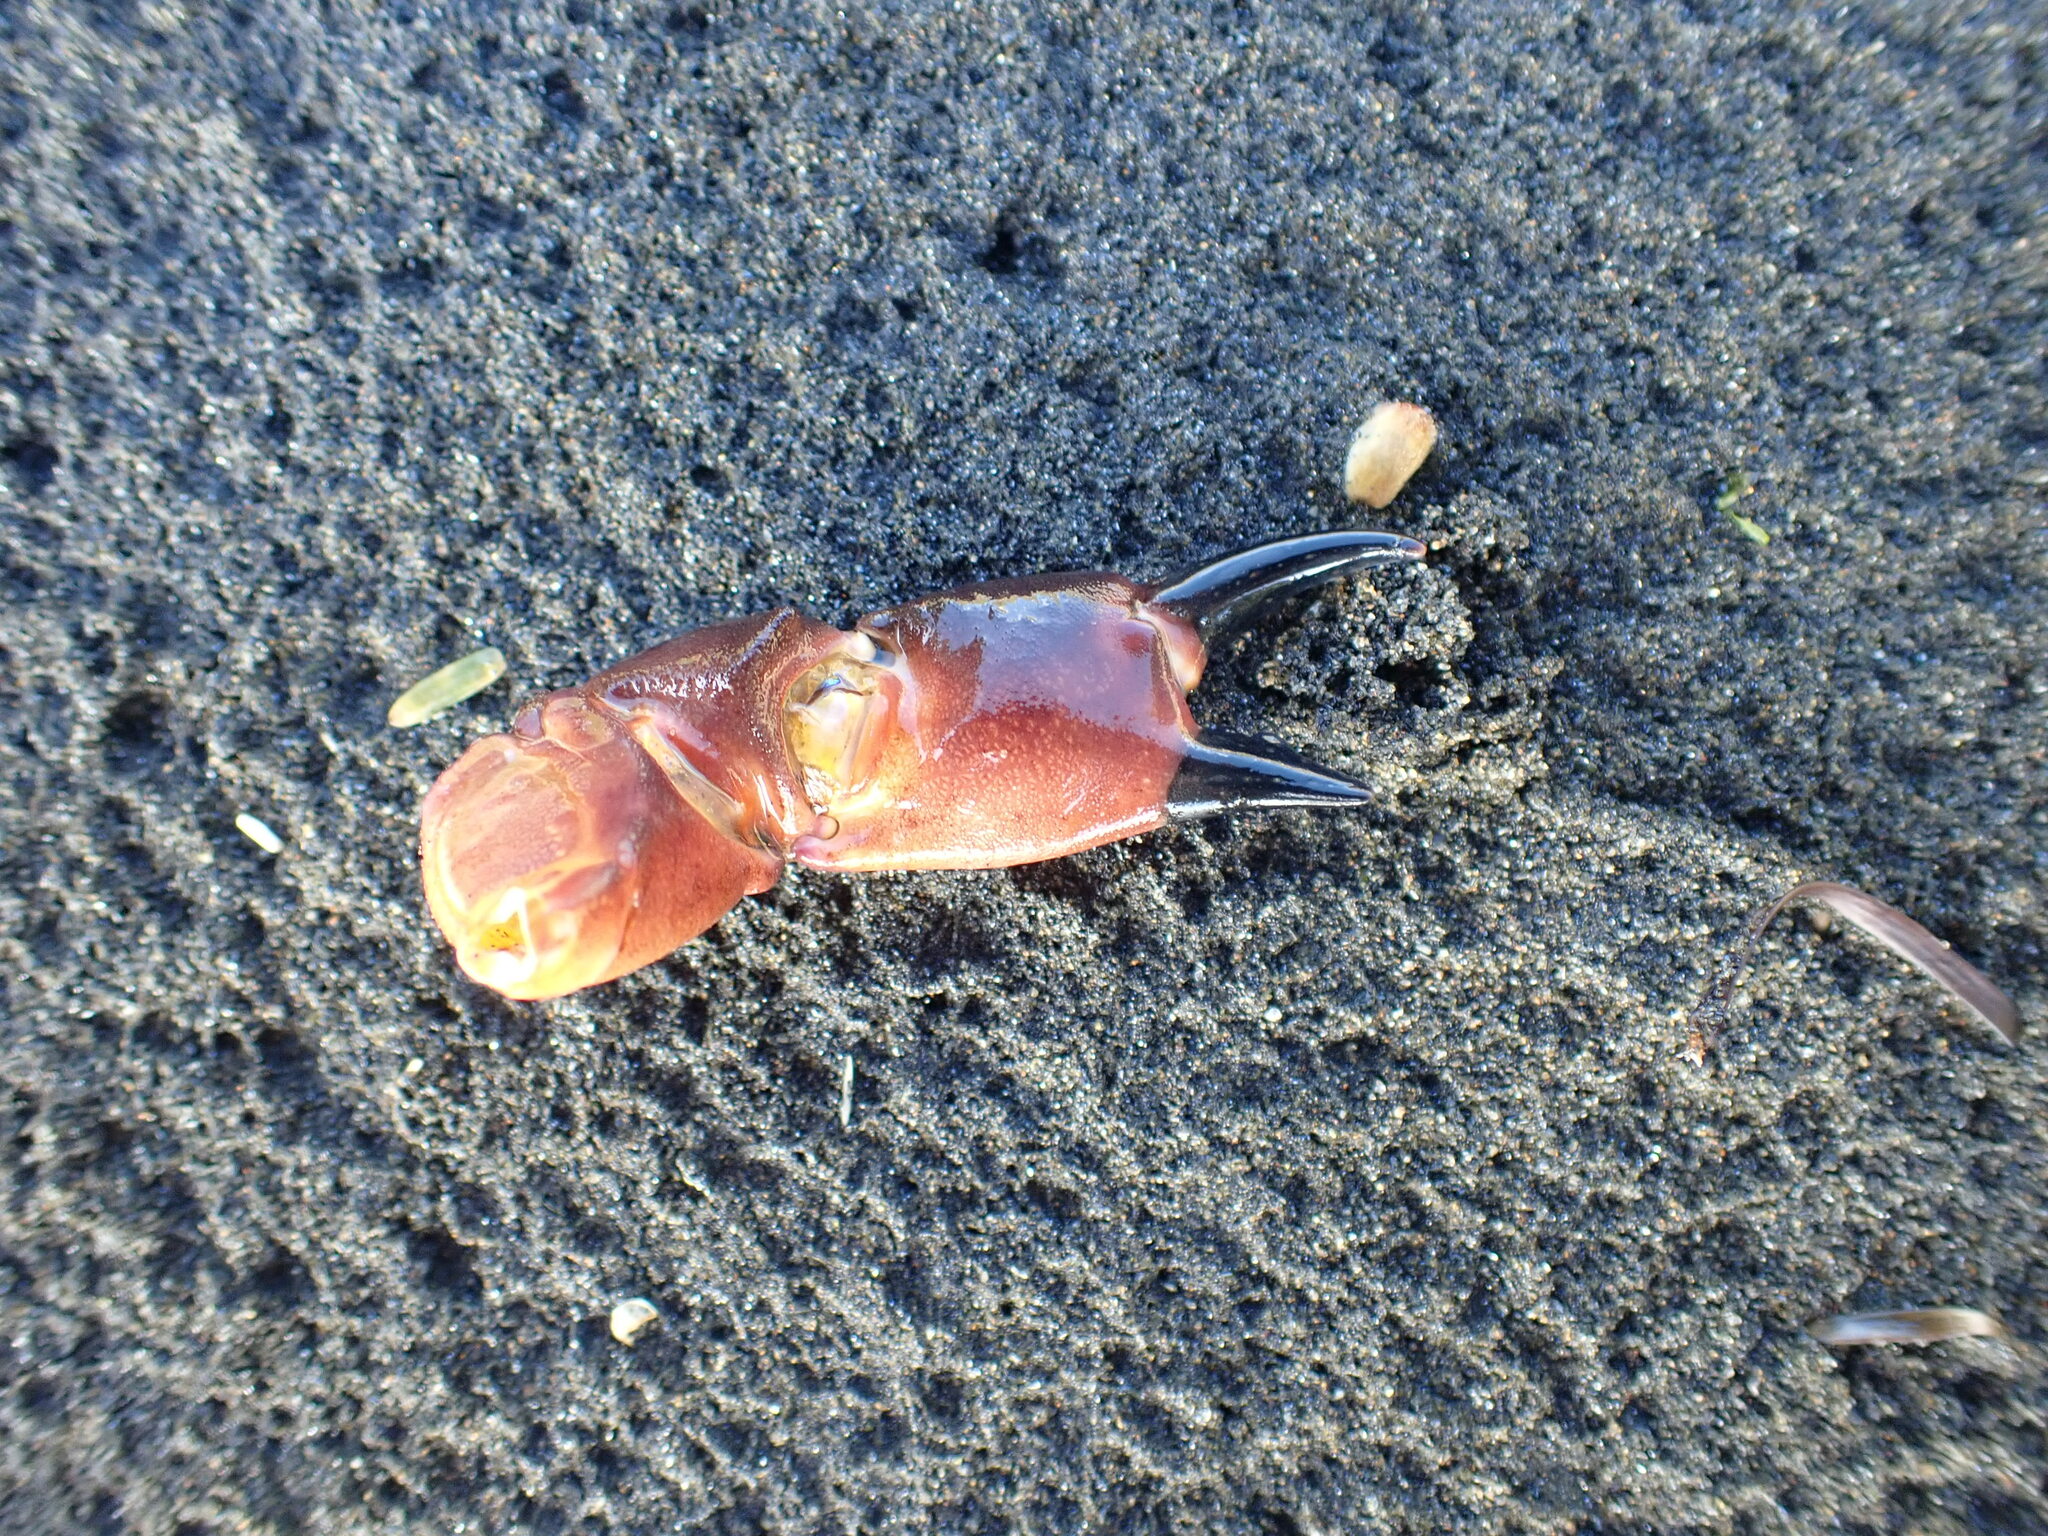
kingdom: Animalia
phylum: Arthropoda
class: Malacostraca
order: Decapoda
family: Oziidae
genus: Ozius
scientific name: Ozius deplanatus
